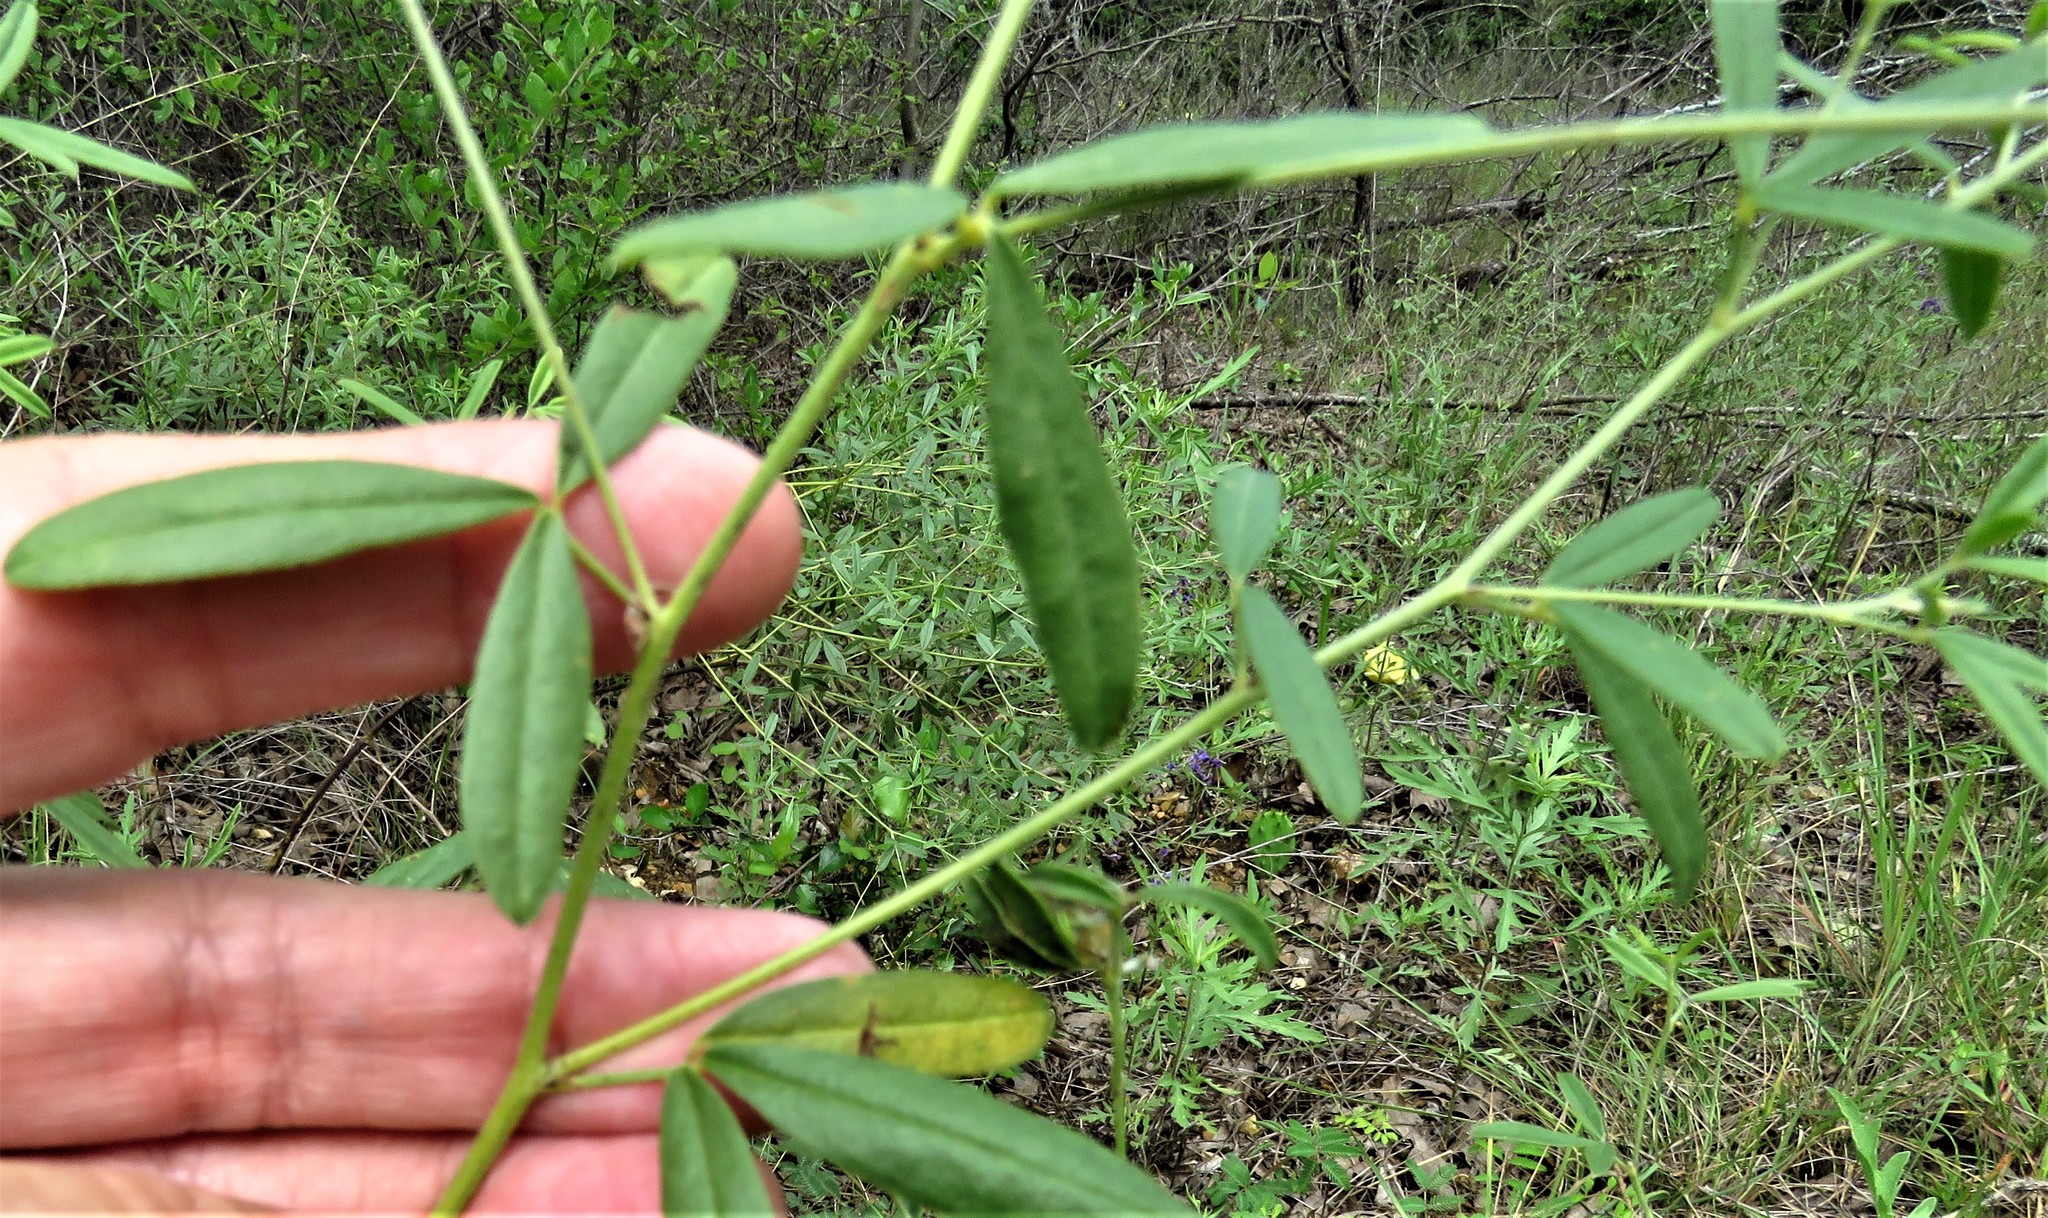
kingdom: Plantae
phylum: Tracheophyta
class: Magnoliopsida
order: Fabales
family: Fabaceae
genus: Pediomelum
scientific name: Pediomelum tenuiflorum
